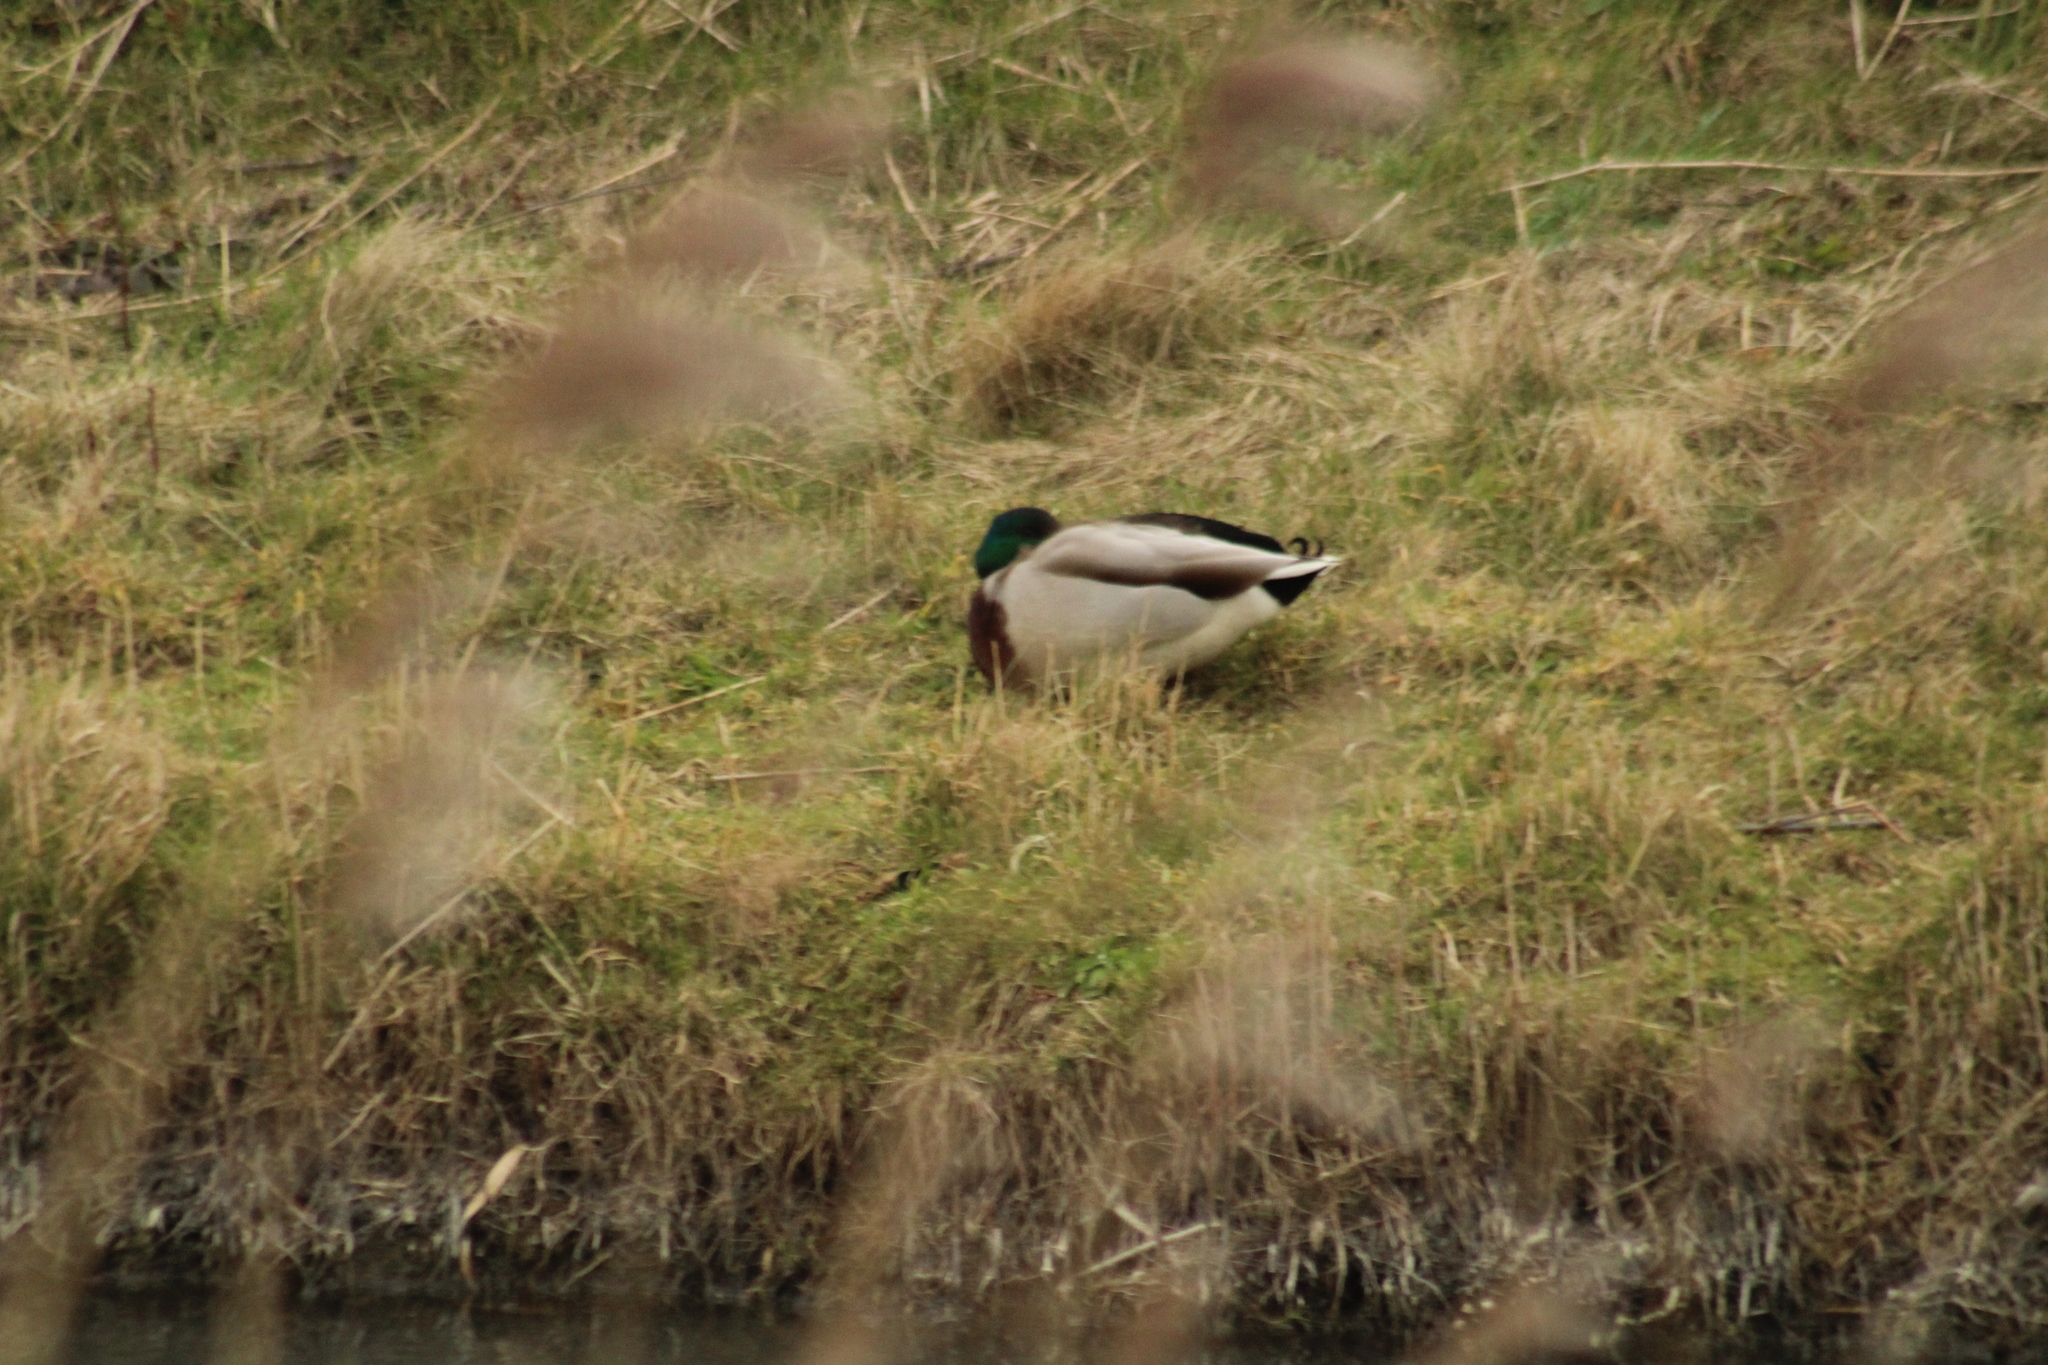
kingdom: Animalia
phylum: Chordata
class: Aves
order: Anseriformes
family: Anatidae
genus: Anas
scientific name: Anas platyrhynchos
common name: Mallard
